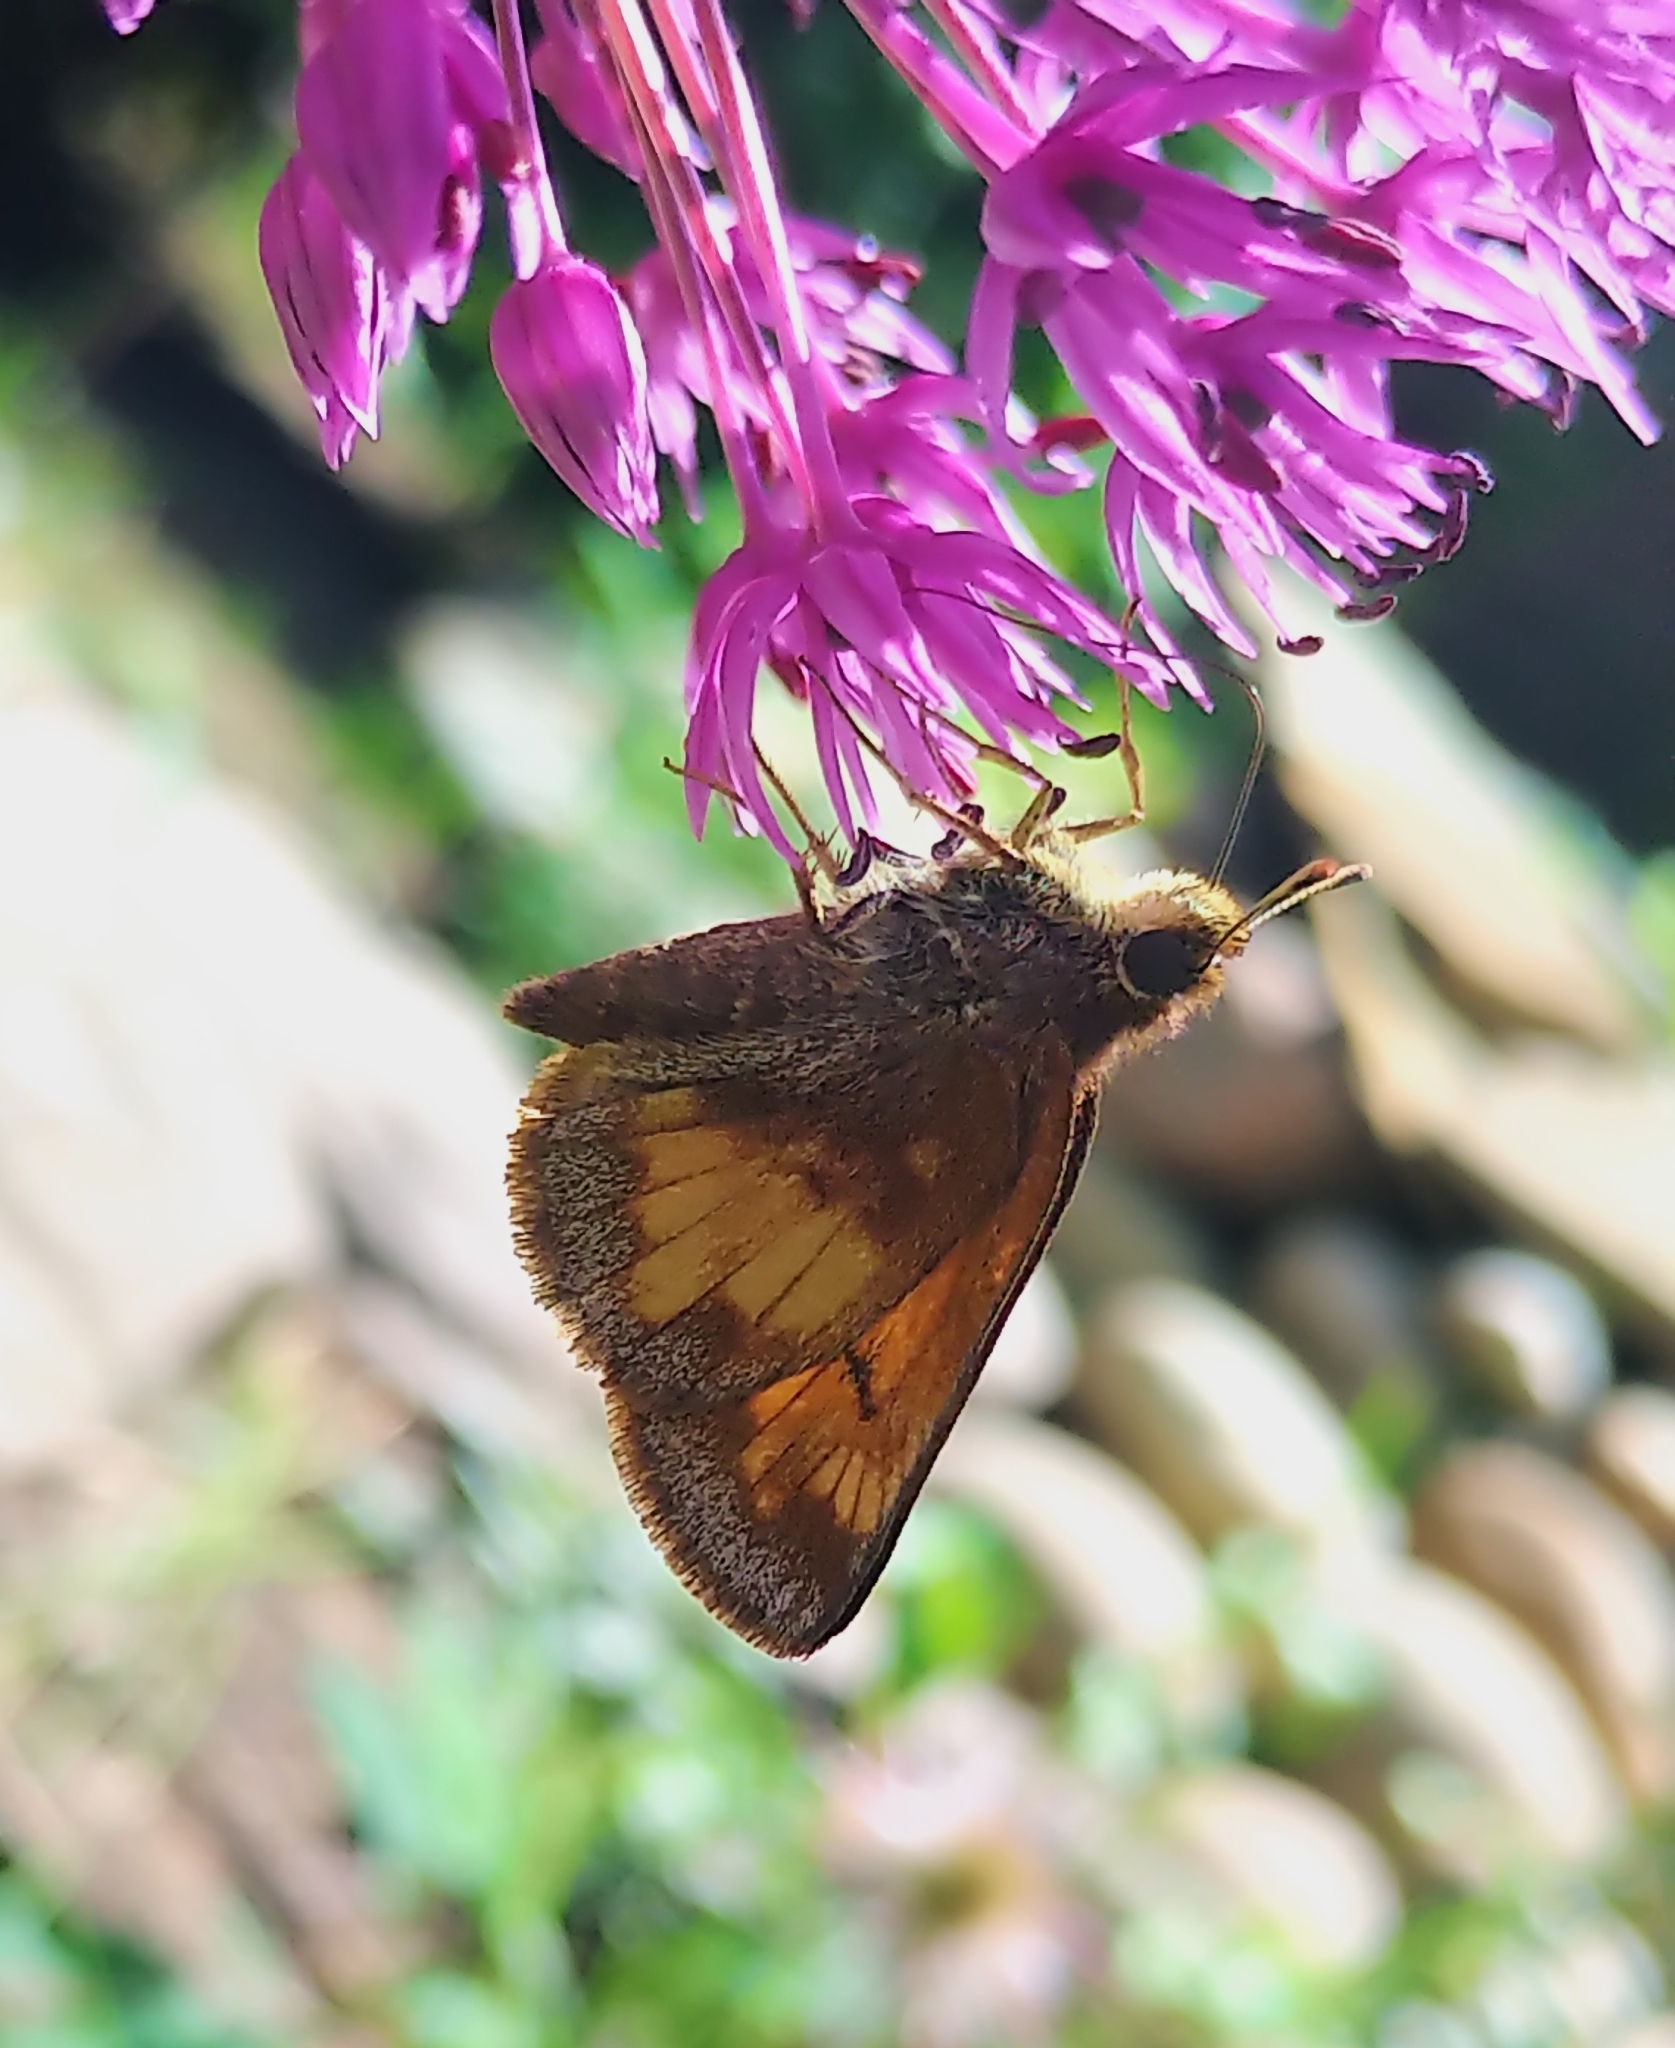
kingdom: Animalia
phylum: Arthropoda
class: Insecta
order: Lepidoptera
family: Hesperiidae
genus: Lon
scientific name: Lon hobomok
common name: Hobomok skipper
